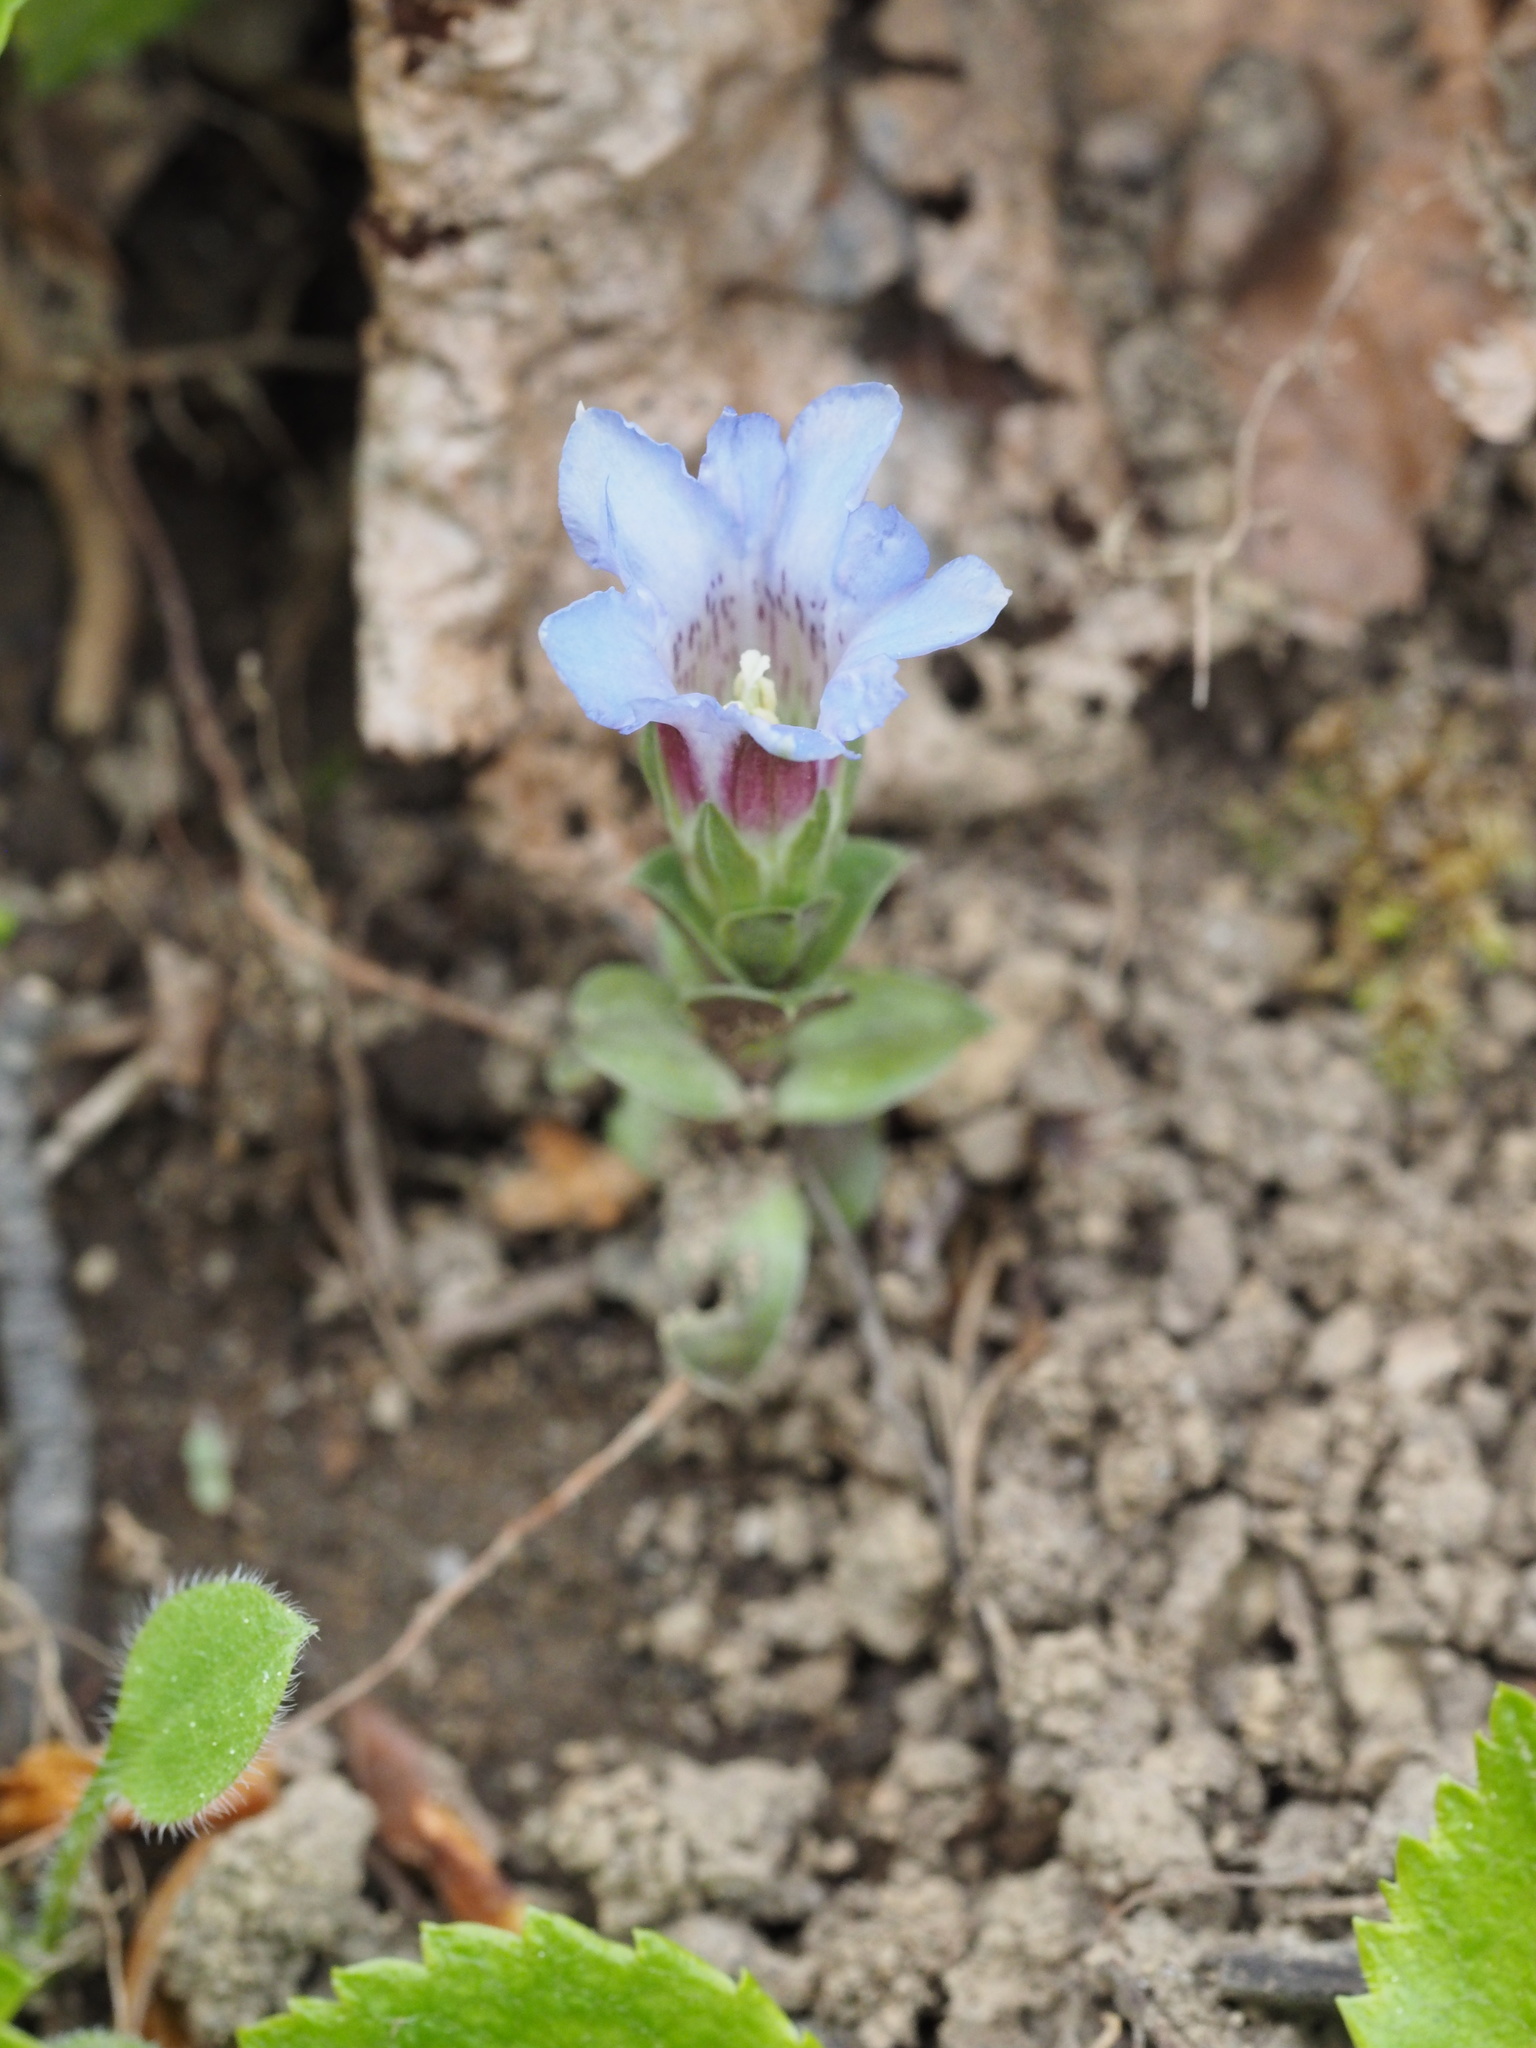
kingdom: Plantae
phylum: Tracheophyta
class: Magnoliopsida
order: Gentianales
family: Gentianaceae
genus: Gentiana
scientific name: Gentiana zollingeri
